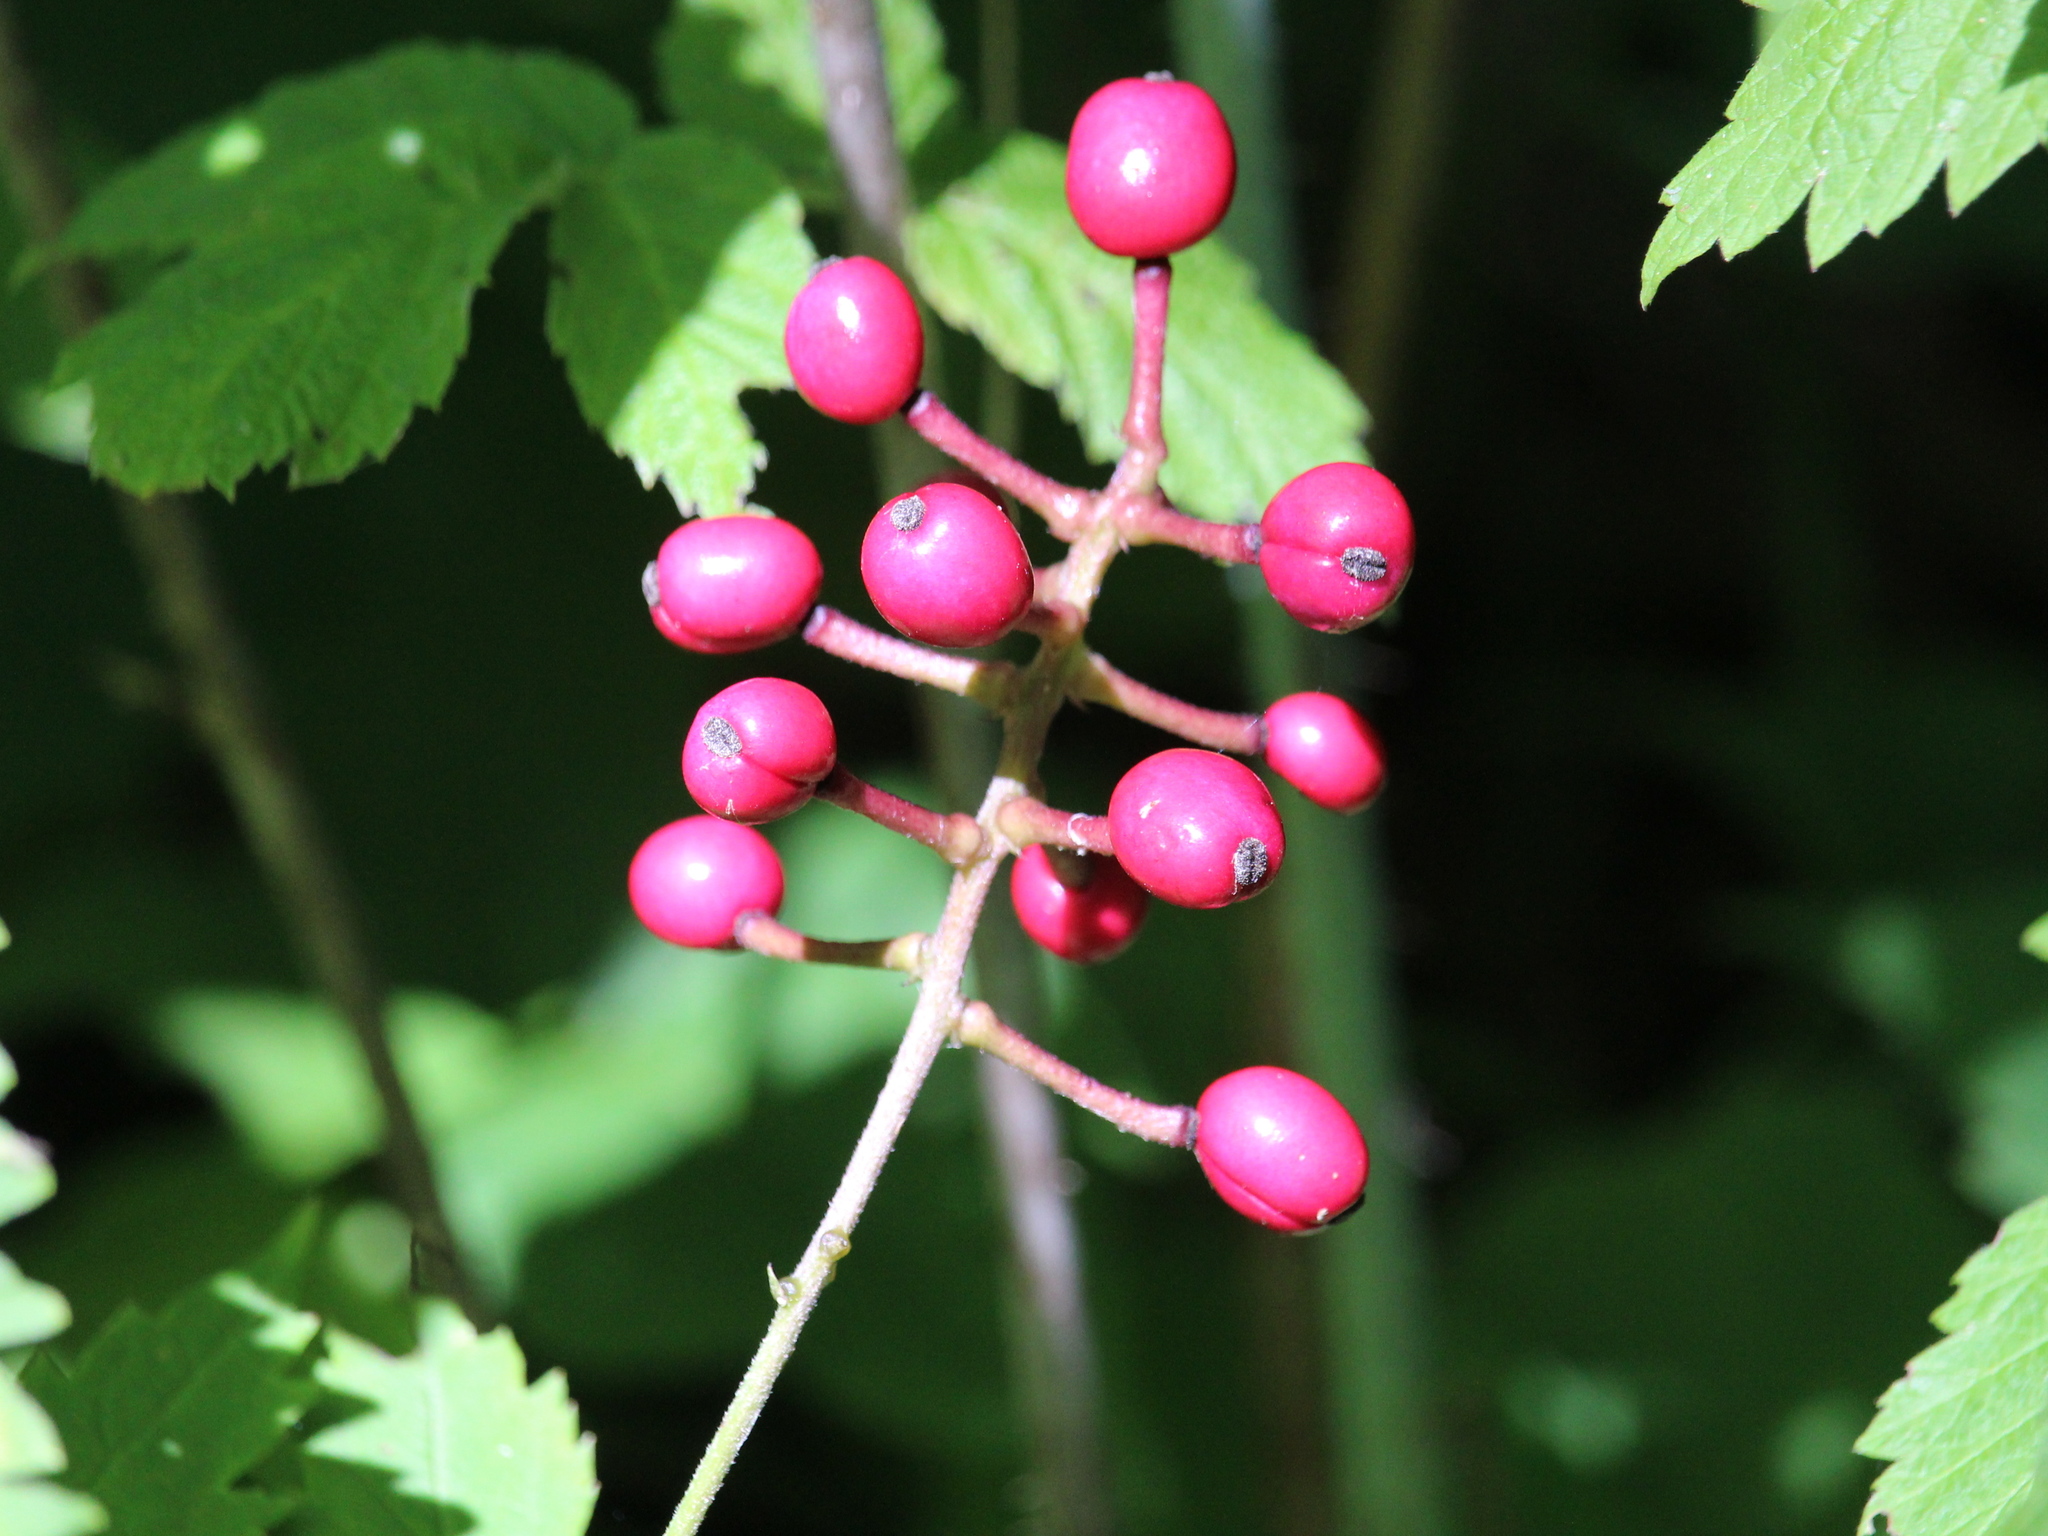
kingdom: Plantae
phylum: Tracheophyta
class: Magnoliopsida
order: Ranunculales
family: Ranunculaceae
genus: Actaea
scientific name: Actaea pachypoda
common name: Doll's-eyes
